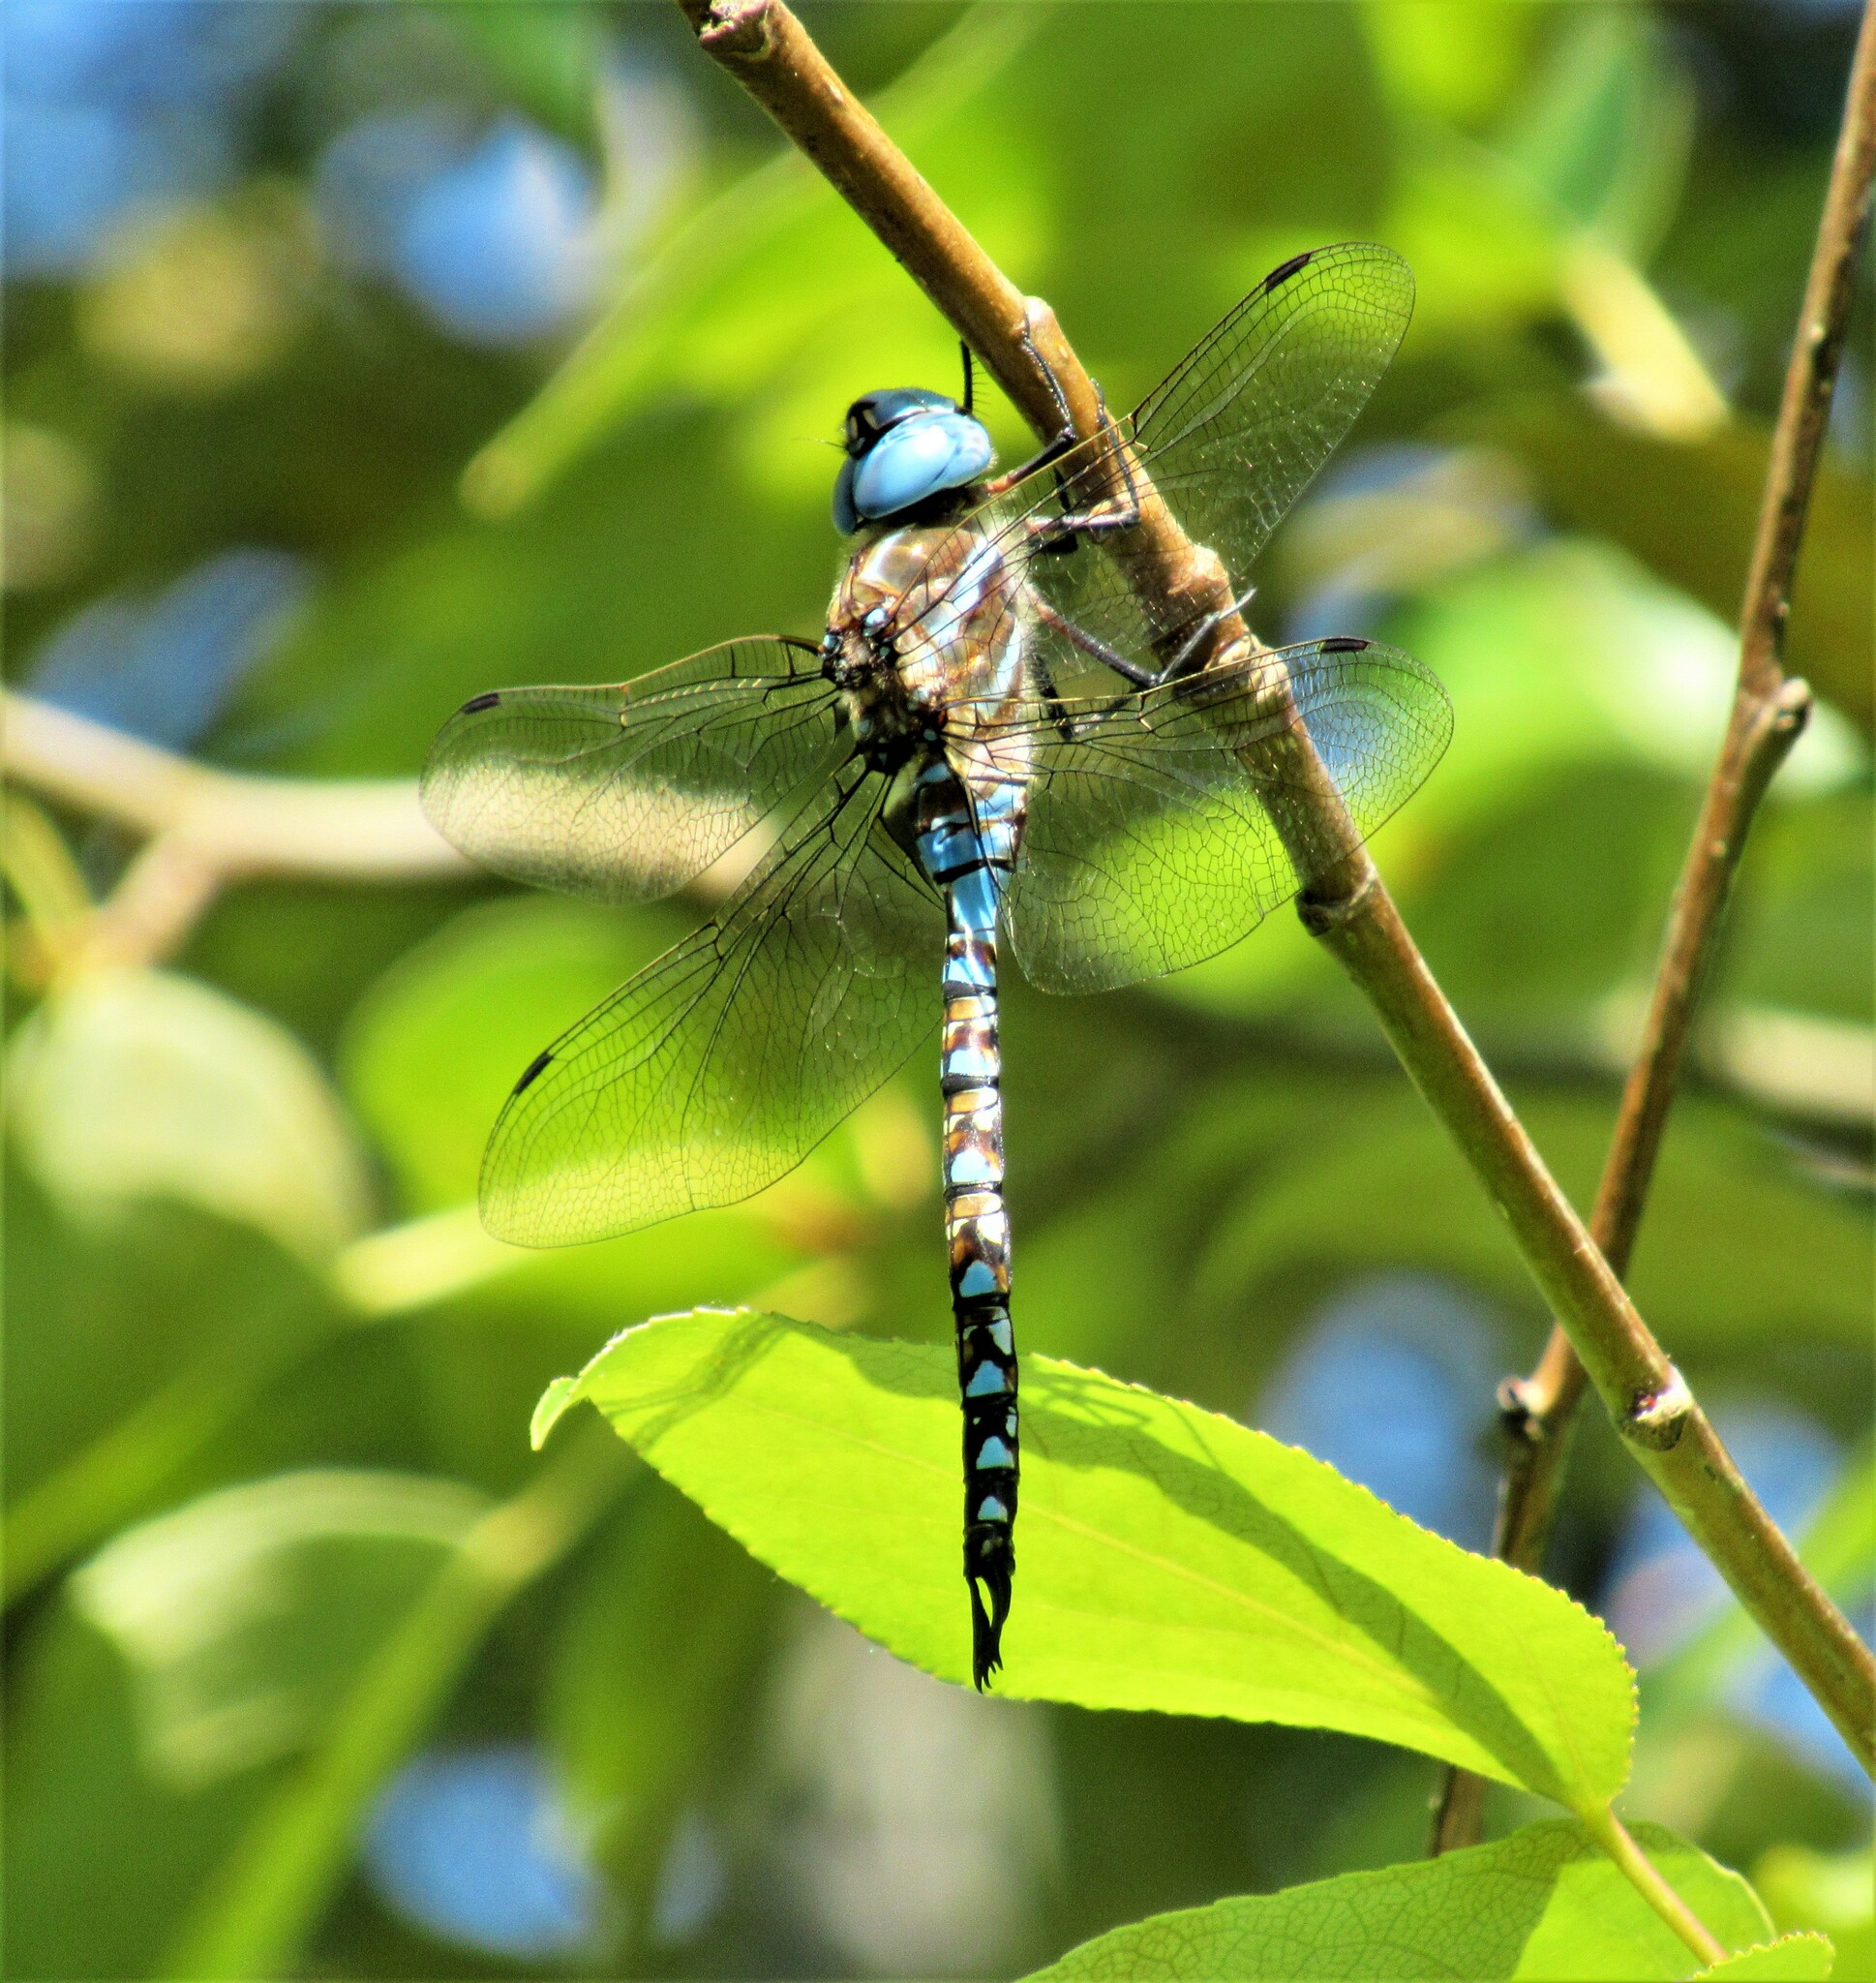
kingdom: Animalia
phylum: Arthropoda
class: Insecta
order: Odonata
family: Aeshnidae
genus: Rhionaeschna
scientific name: Rhionaeschna multicolor
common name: Blue-eyed darner
